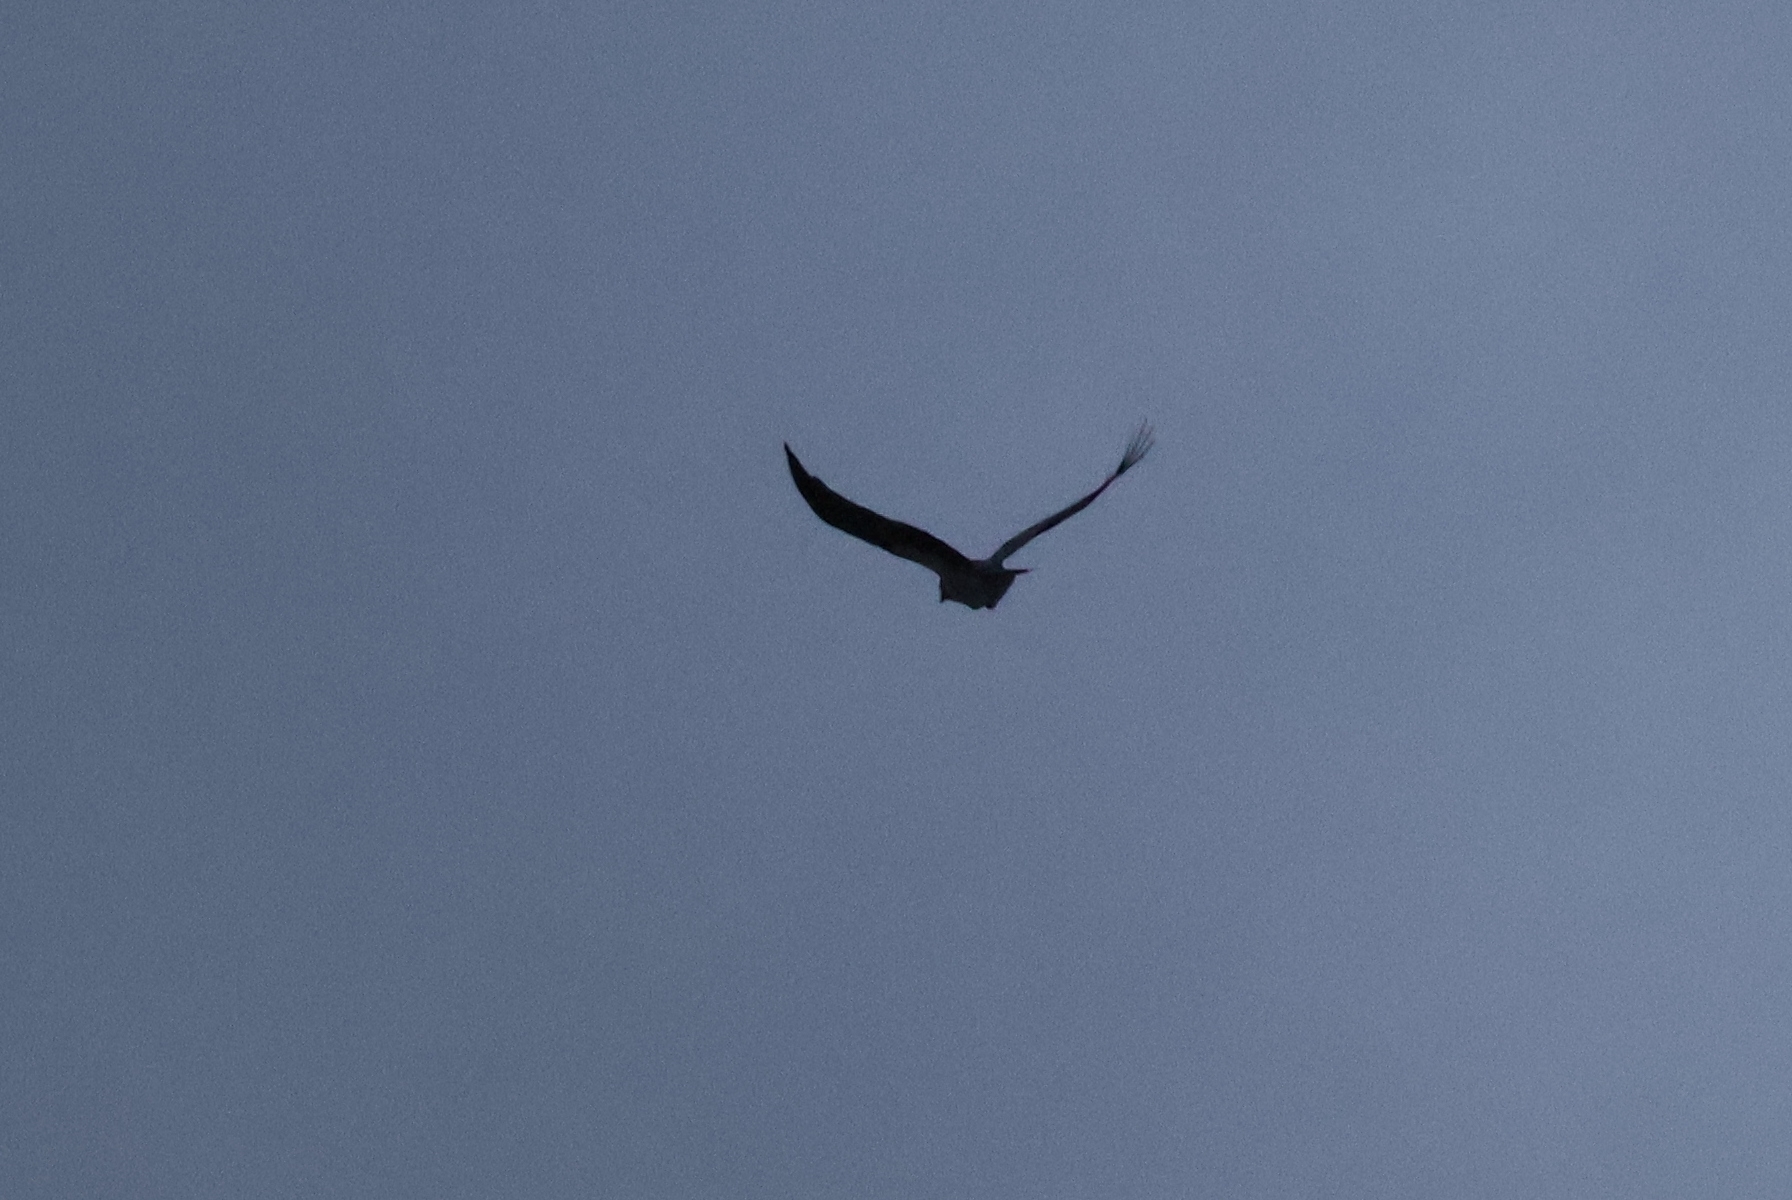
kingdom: Animalia
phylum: Chordata
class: Aves
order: Passeriformes
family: Corvidae
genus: Corvus
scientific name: Corvus cornix
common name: Hooded crow
